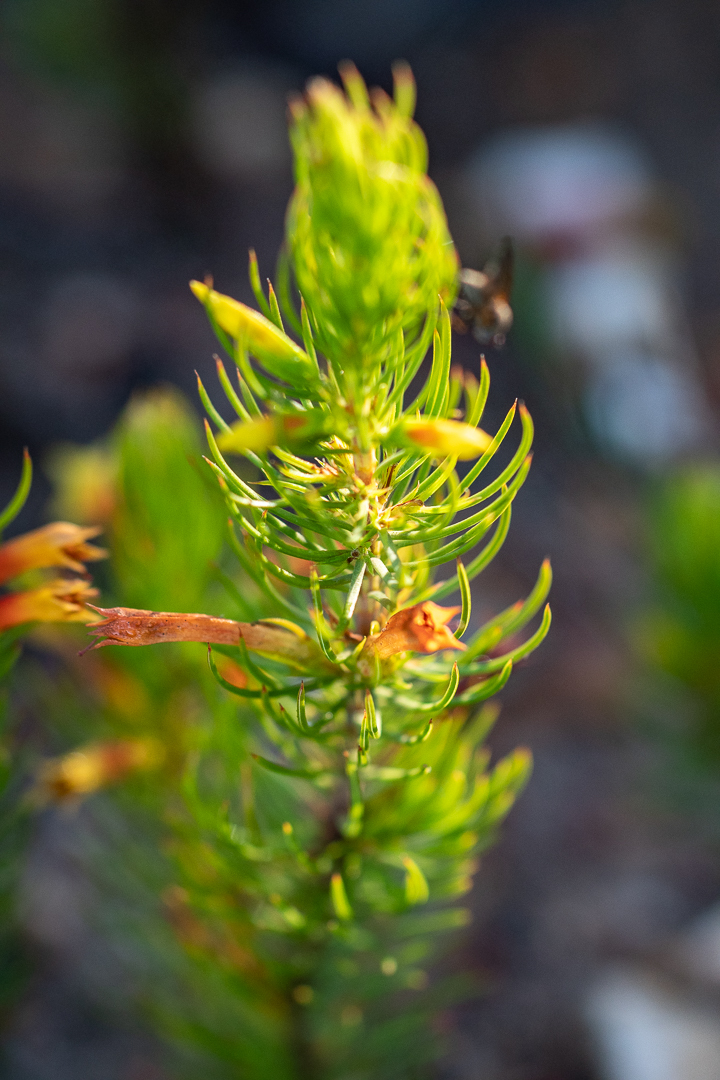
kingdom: Plantae
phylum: Tracheophyta
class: Magnoliopsida
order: Ericales
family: Ericaceae
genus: Erica
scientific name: Erica grandiflora
